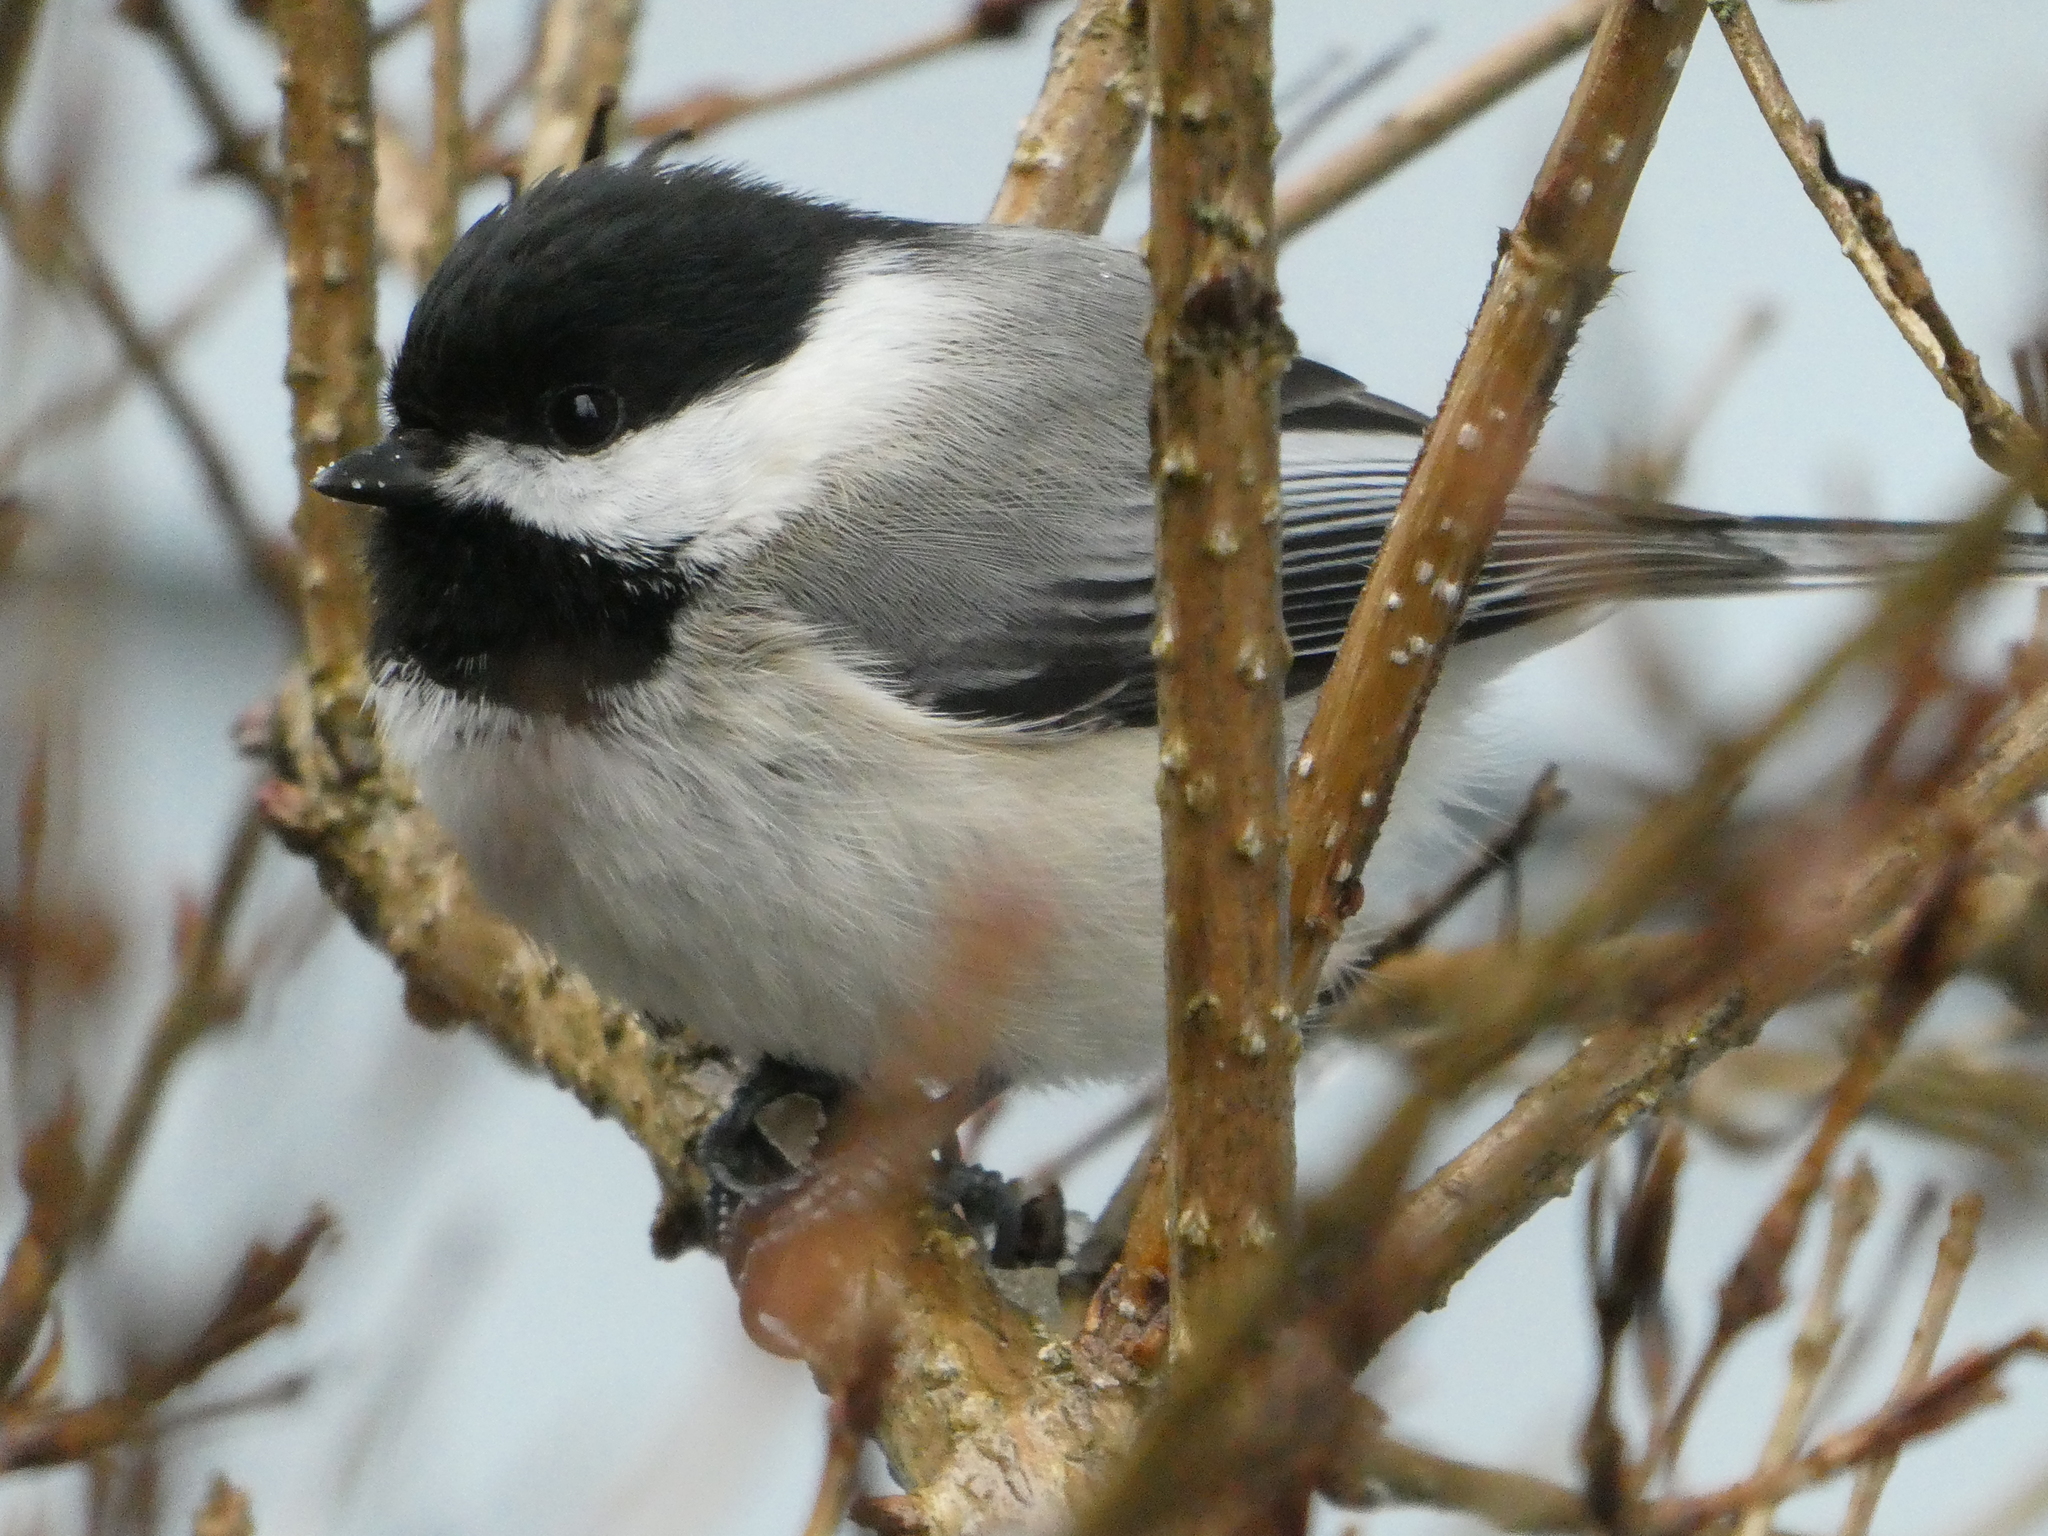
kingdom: Animalia
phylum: Chordata
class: Aves
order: Passeriformes
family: Paridae
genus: Poecile
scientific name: Poecile atricapillus
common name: Black-capped chickadee
